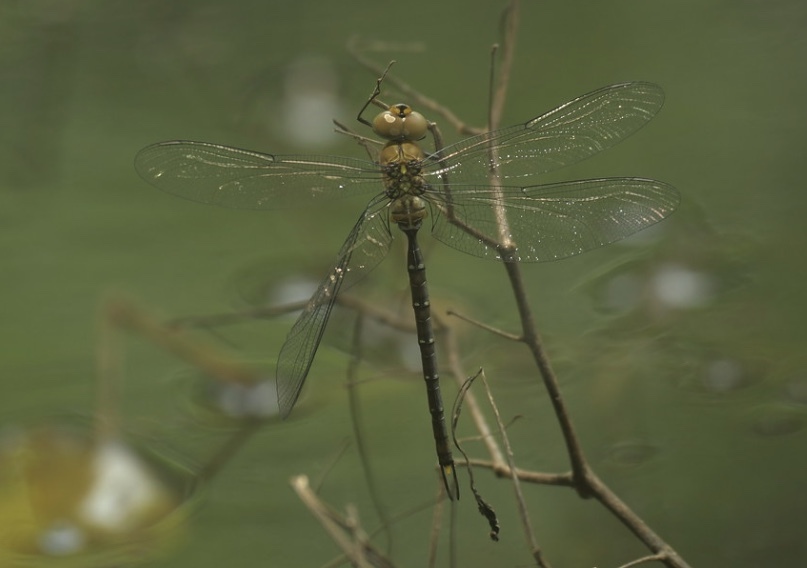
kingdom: Animalia
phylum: Arthropoda
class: Insecta
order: Odonata
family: Aeshnidae
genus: Gynacantha
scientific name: Gynacantha japonica
